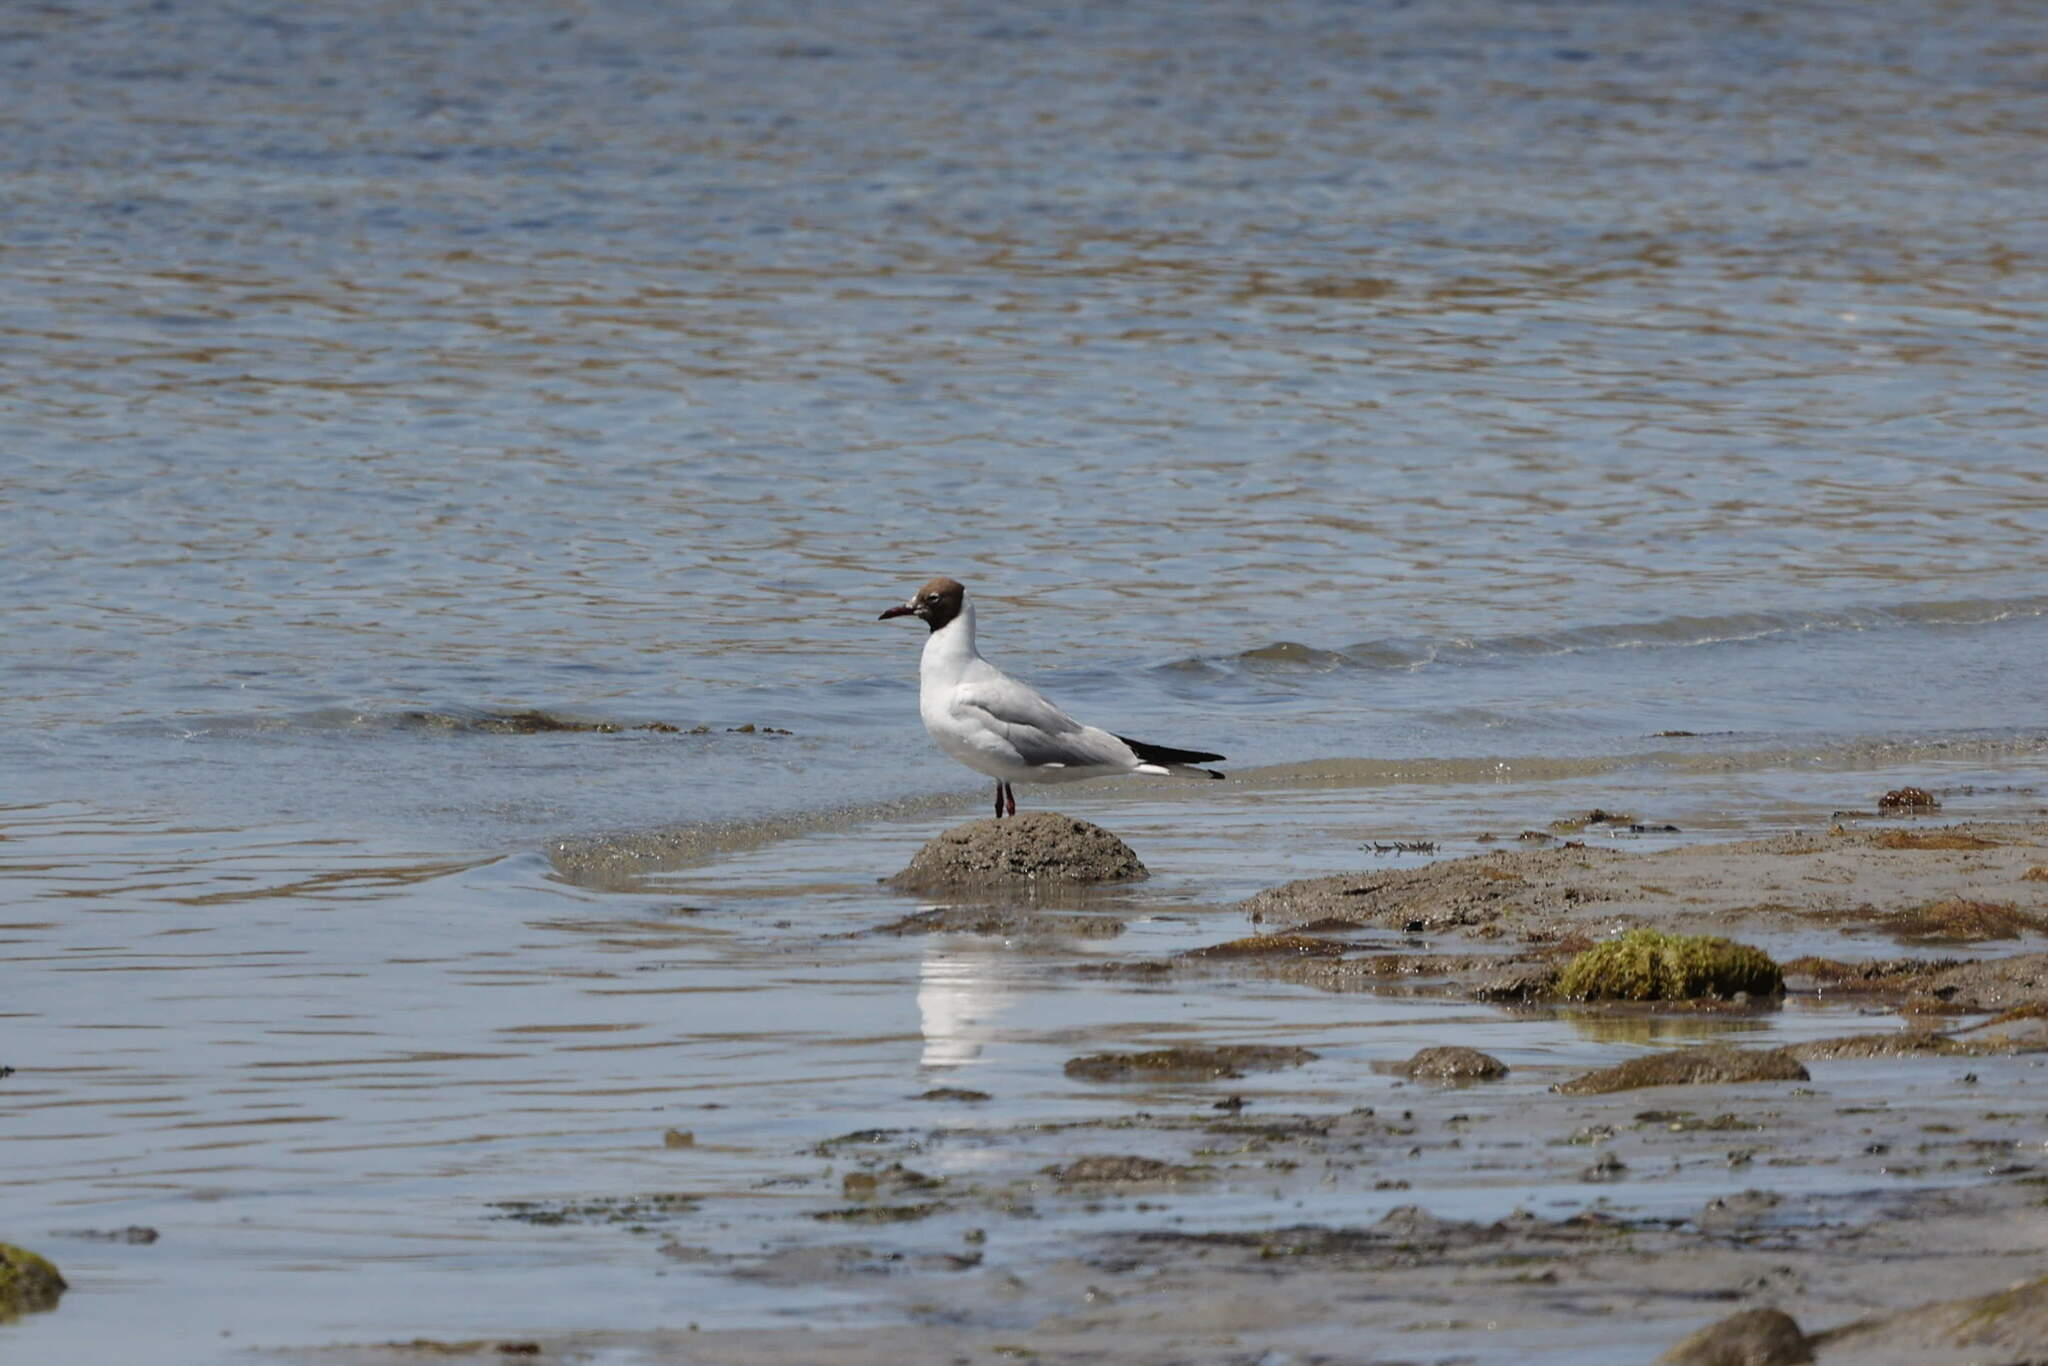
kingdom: Animalia
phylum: Chordata
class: Aves
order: Charadriiformes
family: Laridae
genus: Chroicocephalus
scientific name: Chroicocephalus ridibundus
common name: Black-headed gull
